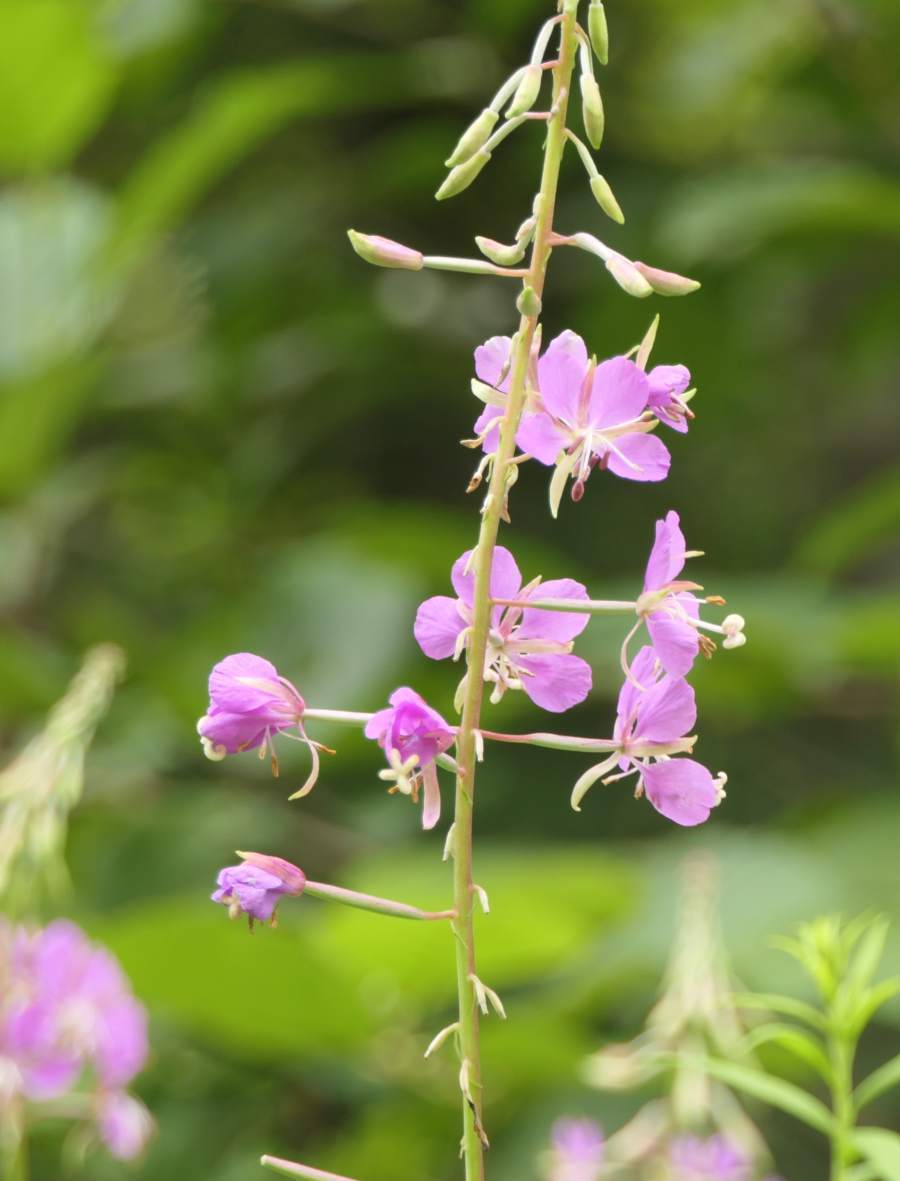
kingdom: Plantae
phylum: Tracheophyta
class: Magnoliopsida
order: Myrtales
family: Onagraceae
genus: Chamaenerion
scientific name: Chamaenerion angustifolium
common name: Fireweed
